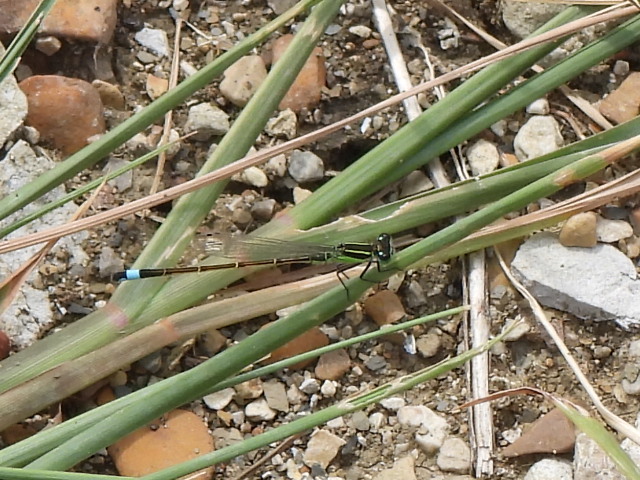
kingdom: Animalia
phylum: Arthropoda
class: Insecta
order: Odonata
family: Coenagrionidae
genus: Ischnura
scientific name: Ischnura ramburii
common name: Rambur's forktail
